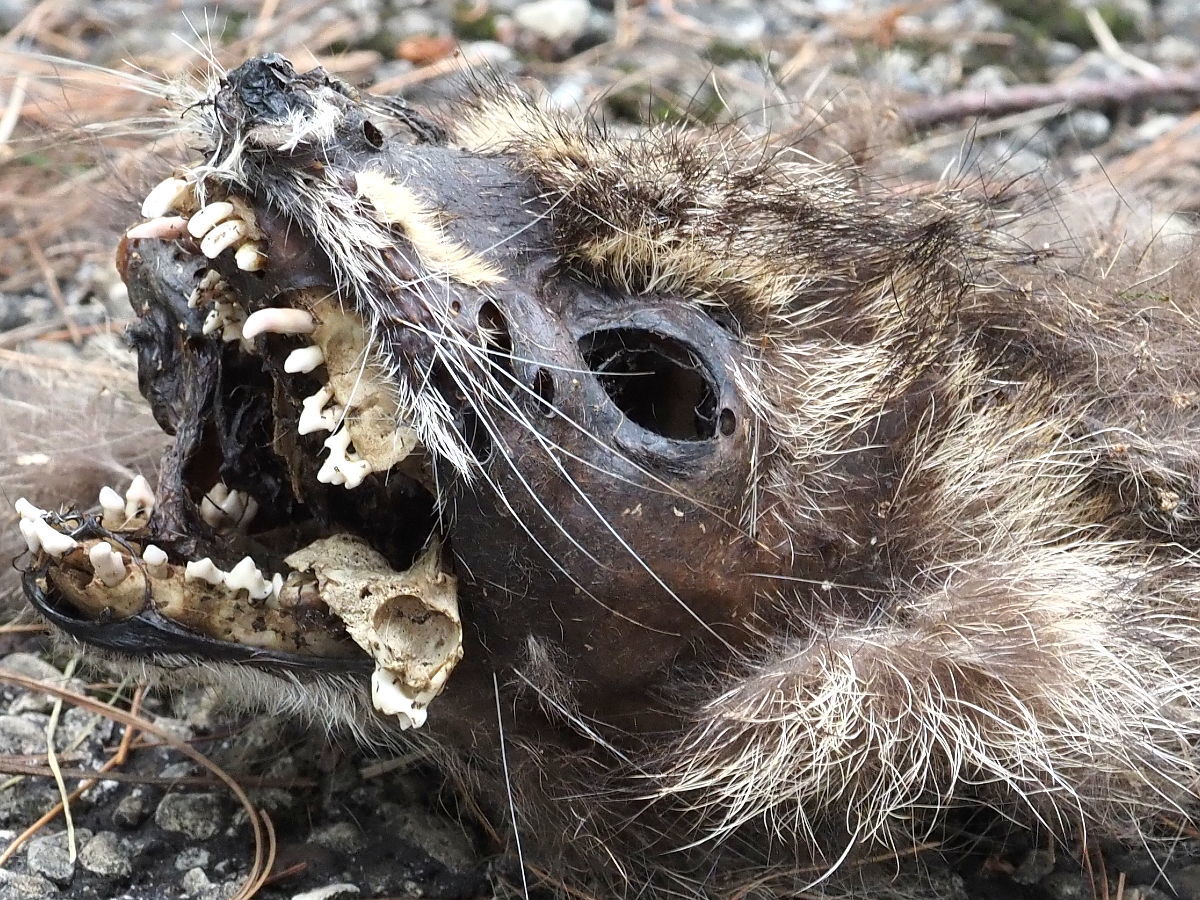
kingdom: Animalia
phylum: Chordata
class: Mammalia
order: Carnivora
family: Procyonidae
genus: Procyon
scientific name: Procyon lotor
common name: Raccoon
